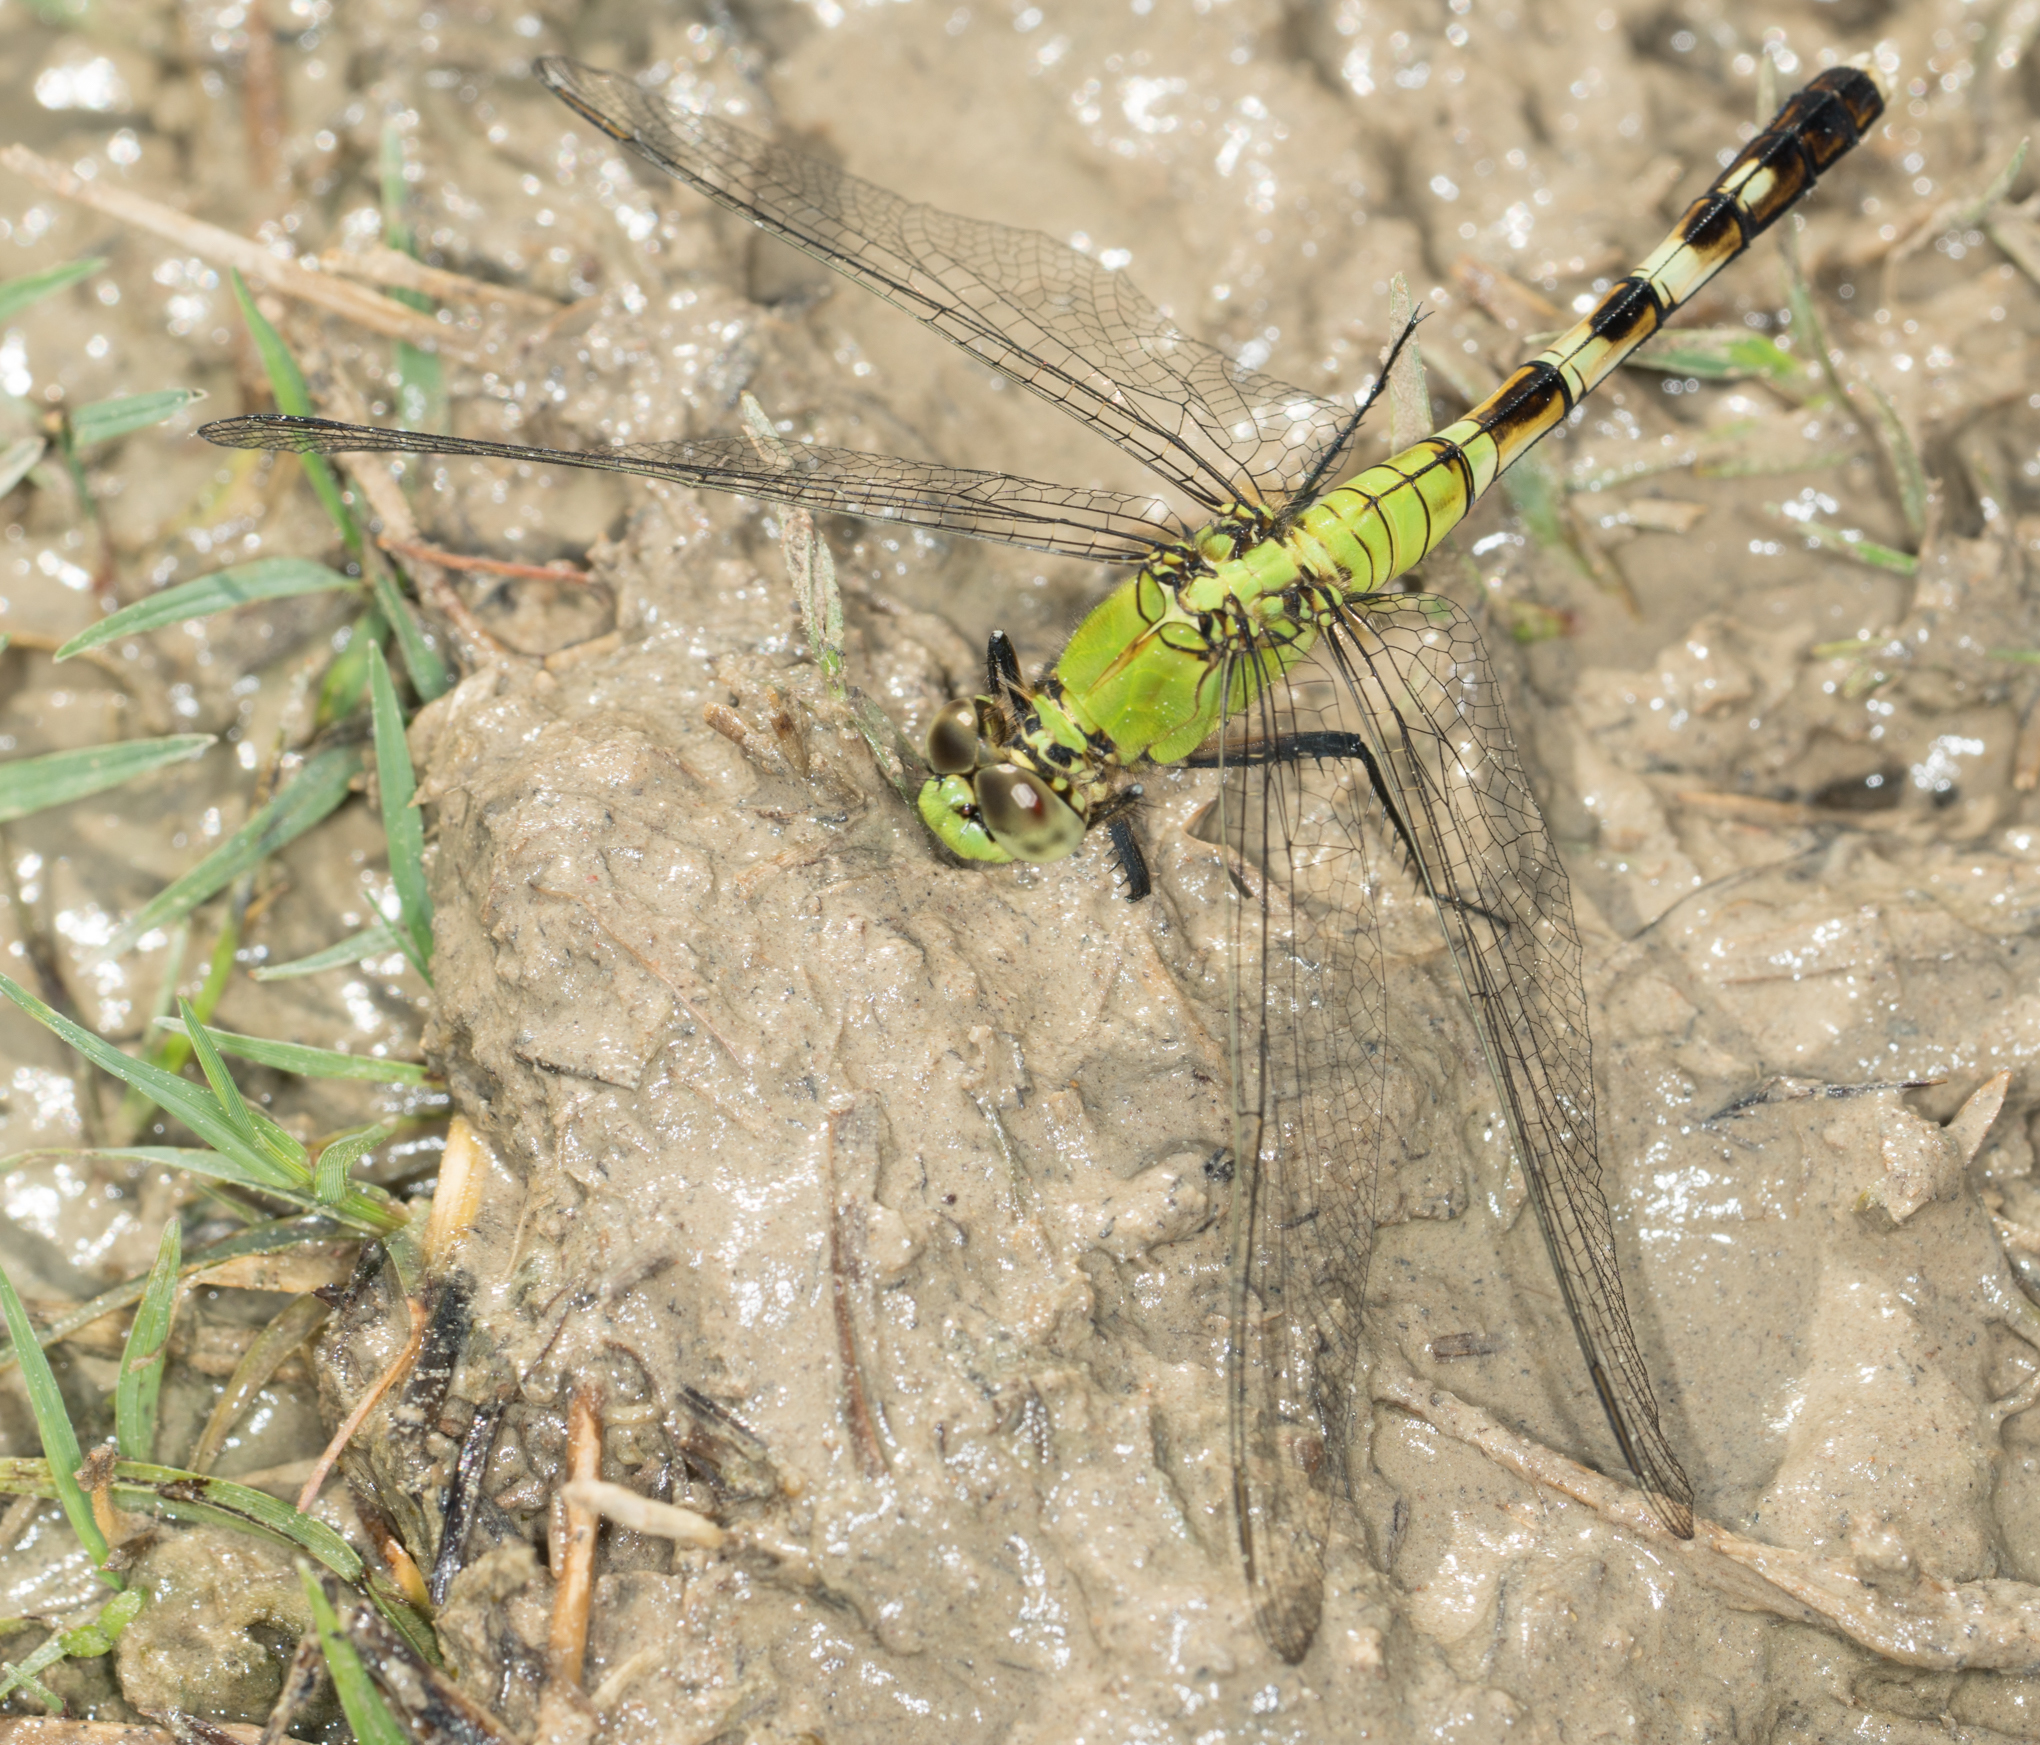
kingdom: Animalia
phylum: Arthropoda
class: Insecta
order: Odonata
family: Libellulidae
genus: Erythemis
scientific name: Erythemis simplicicollis
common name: Eastern pondhawk
